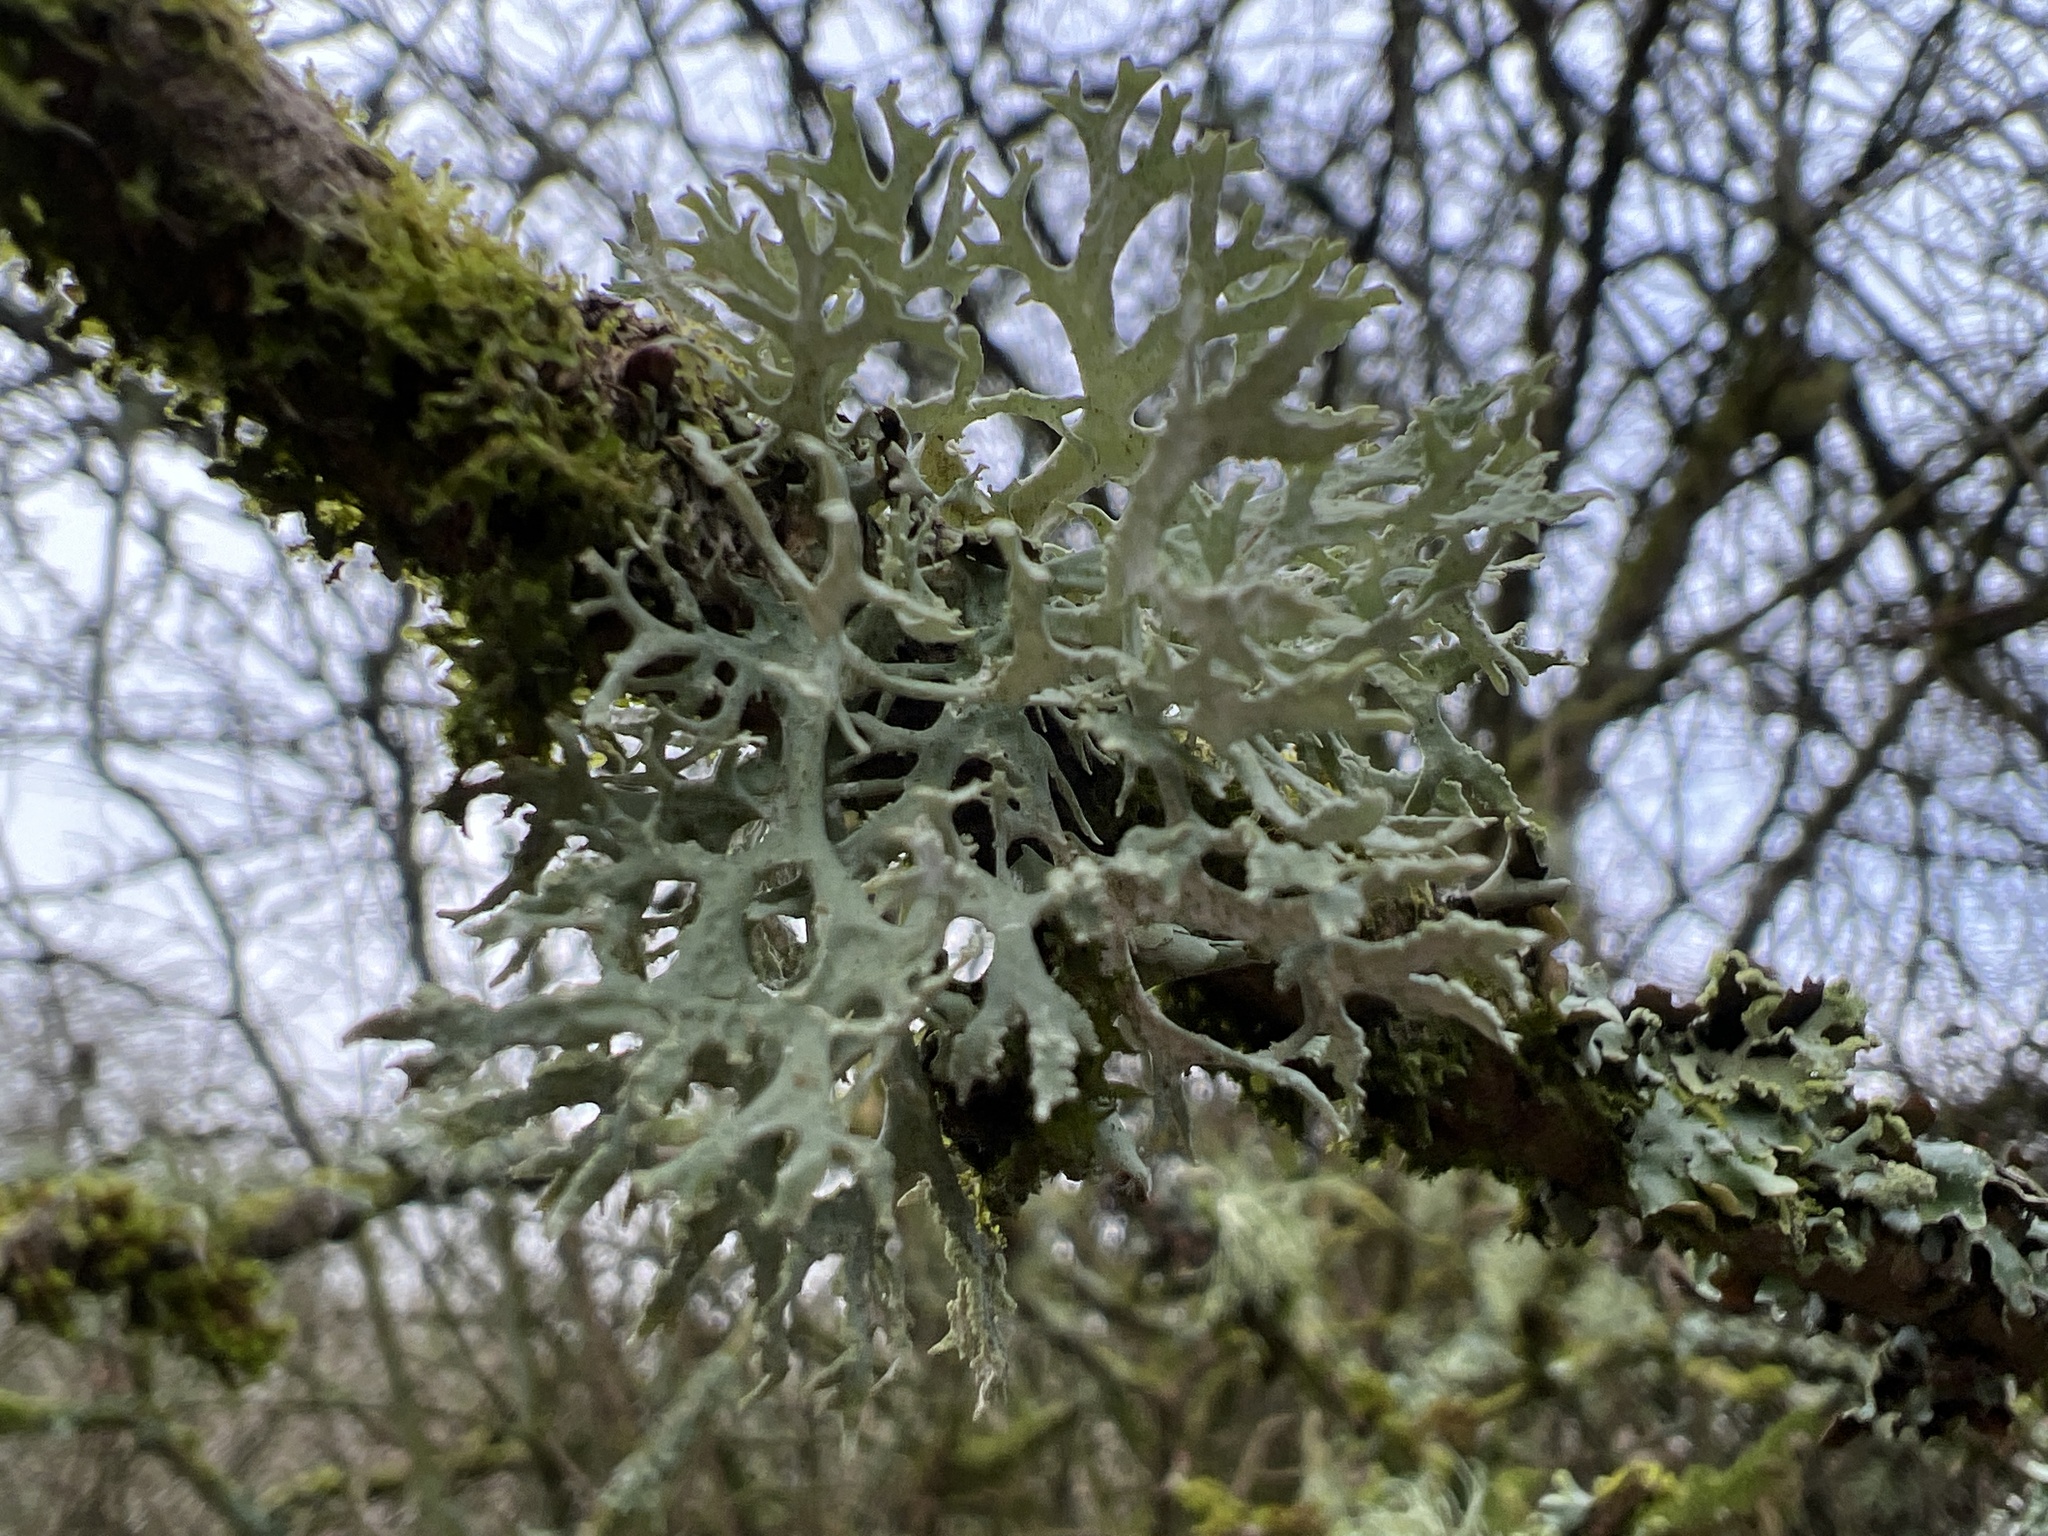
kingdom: Fungi
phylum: Ascomycota
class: Lecanoromycetes
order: Lecanorales
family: Parmeliaceae
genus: Evernia
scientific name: Evernia prunastri
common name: Oak moss
